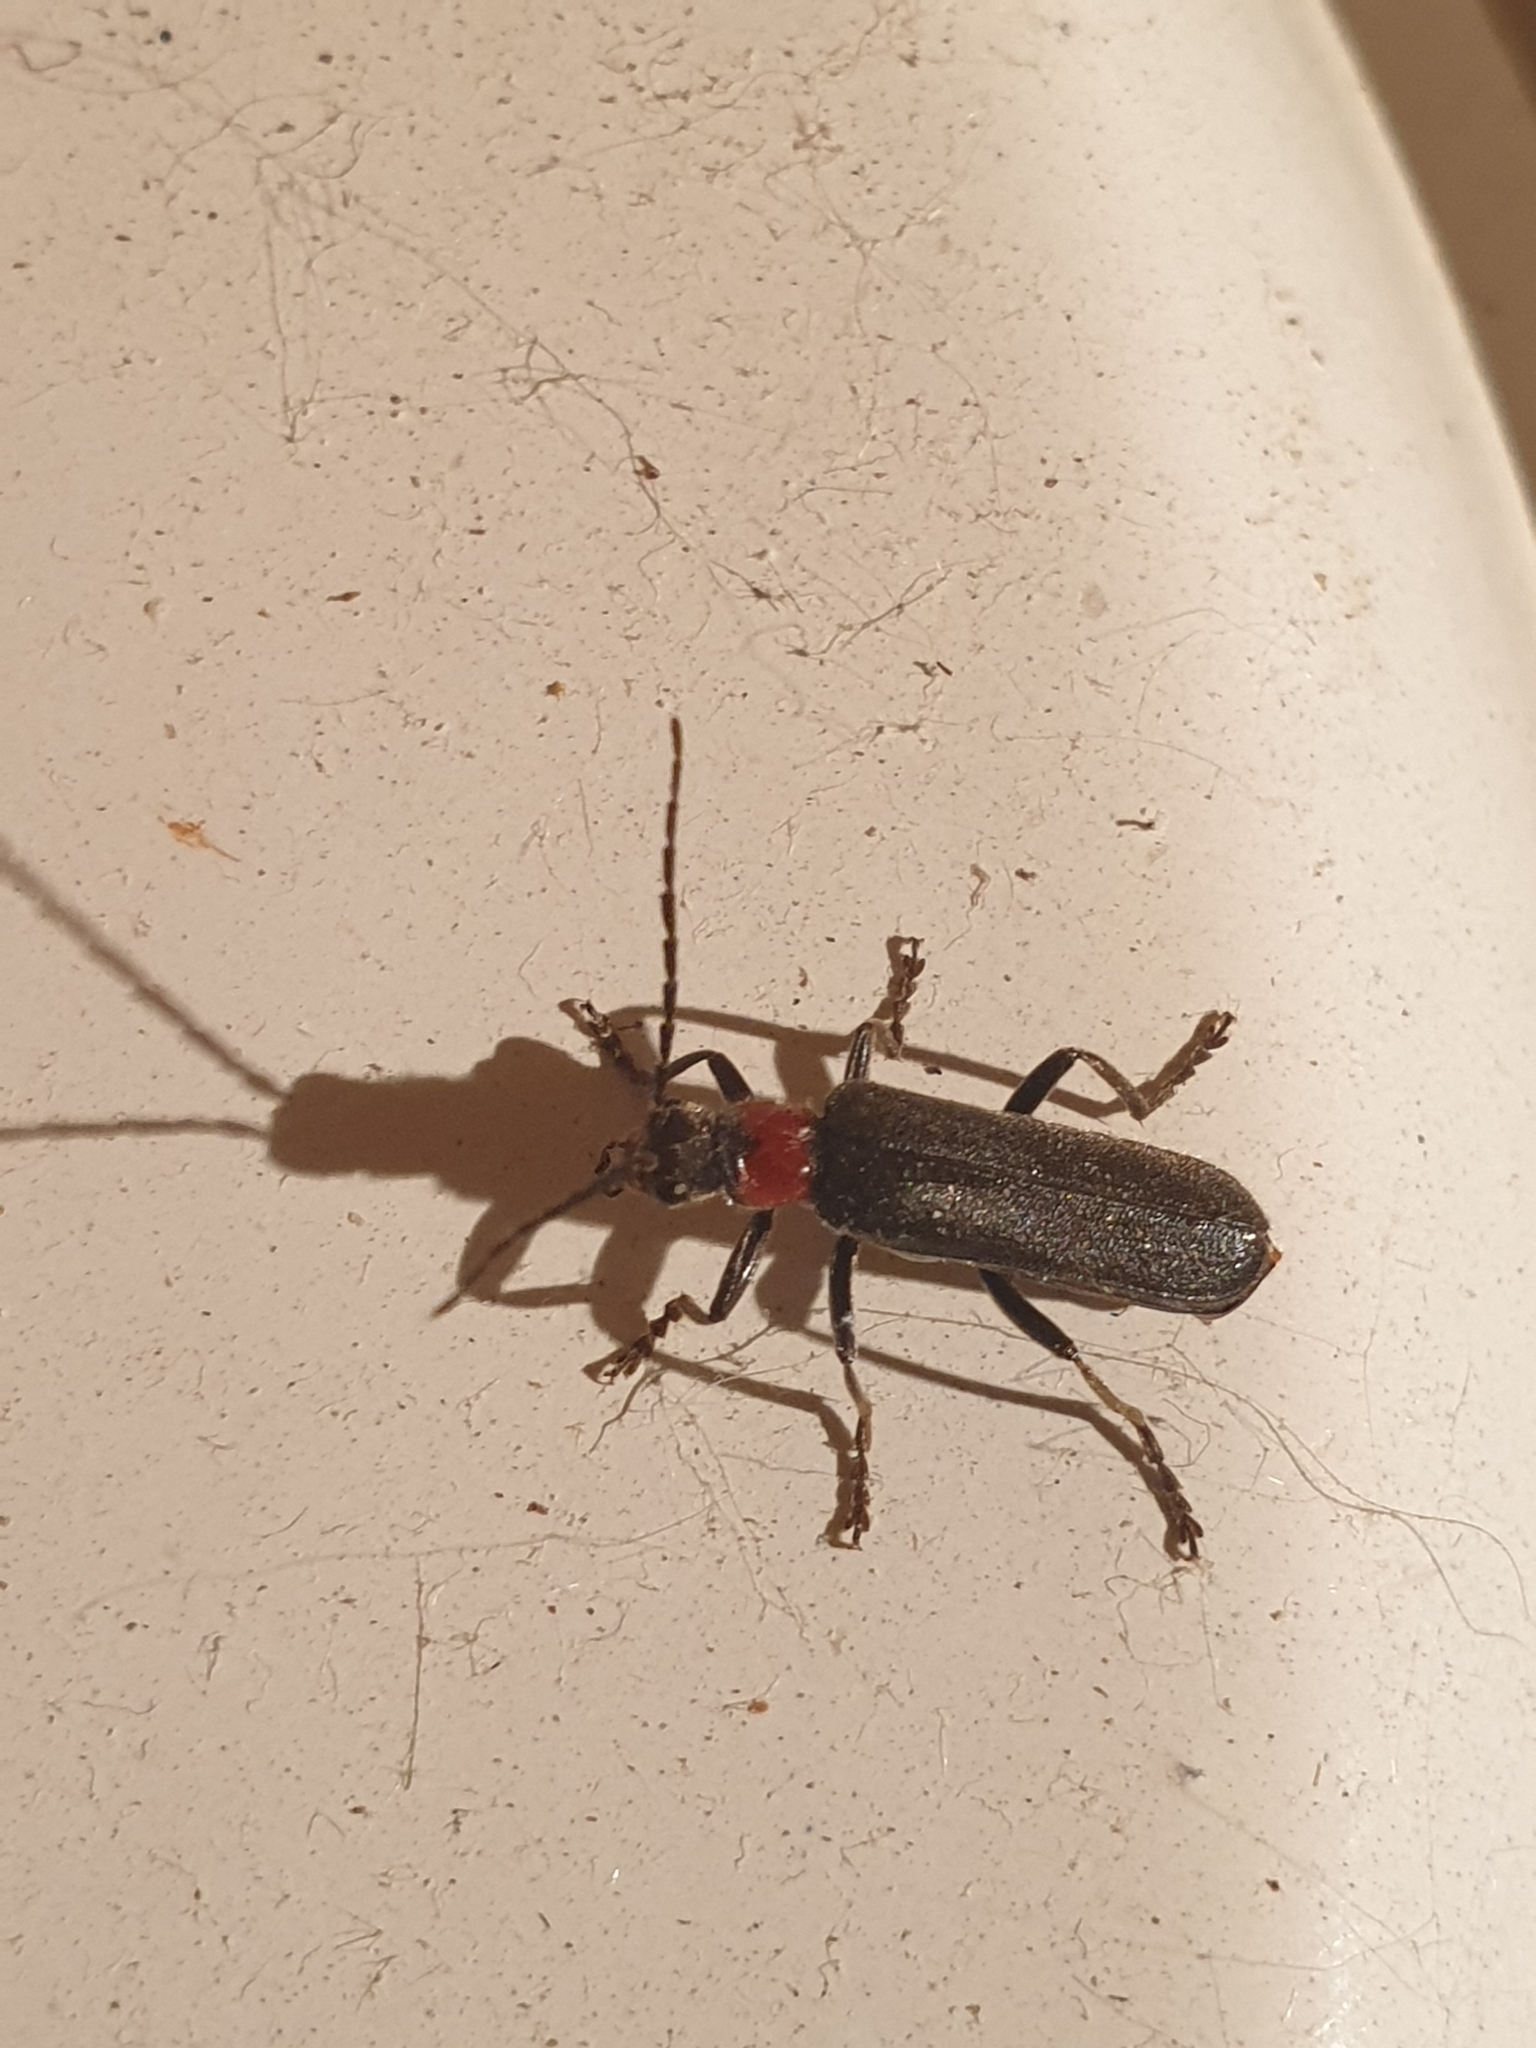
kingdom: Animalia
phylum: Arthropoda
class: Insecta
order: Coleoptera
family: Cantharidae
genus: Cordicantharis
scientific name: Cordicantharis cordicollis
